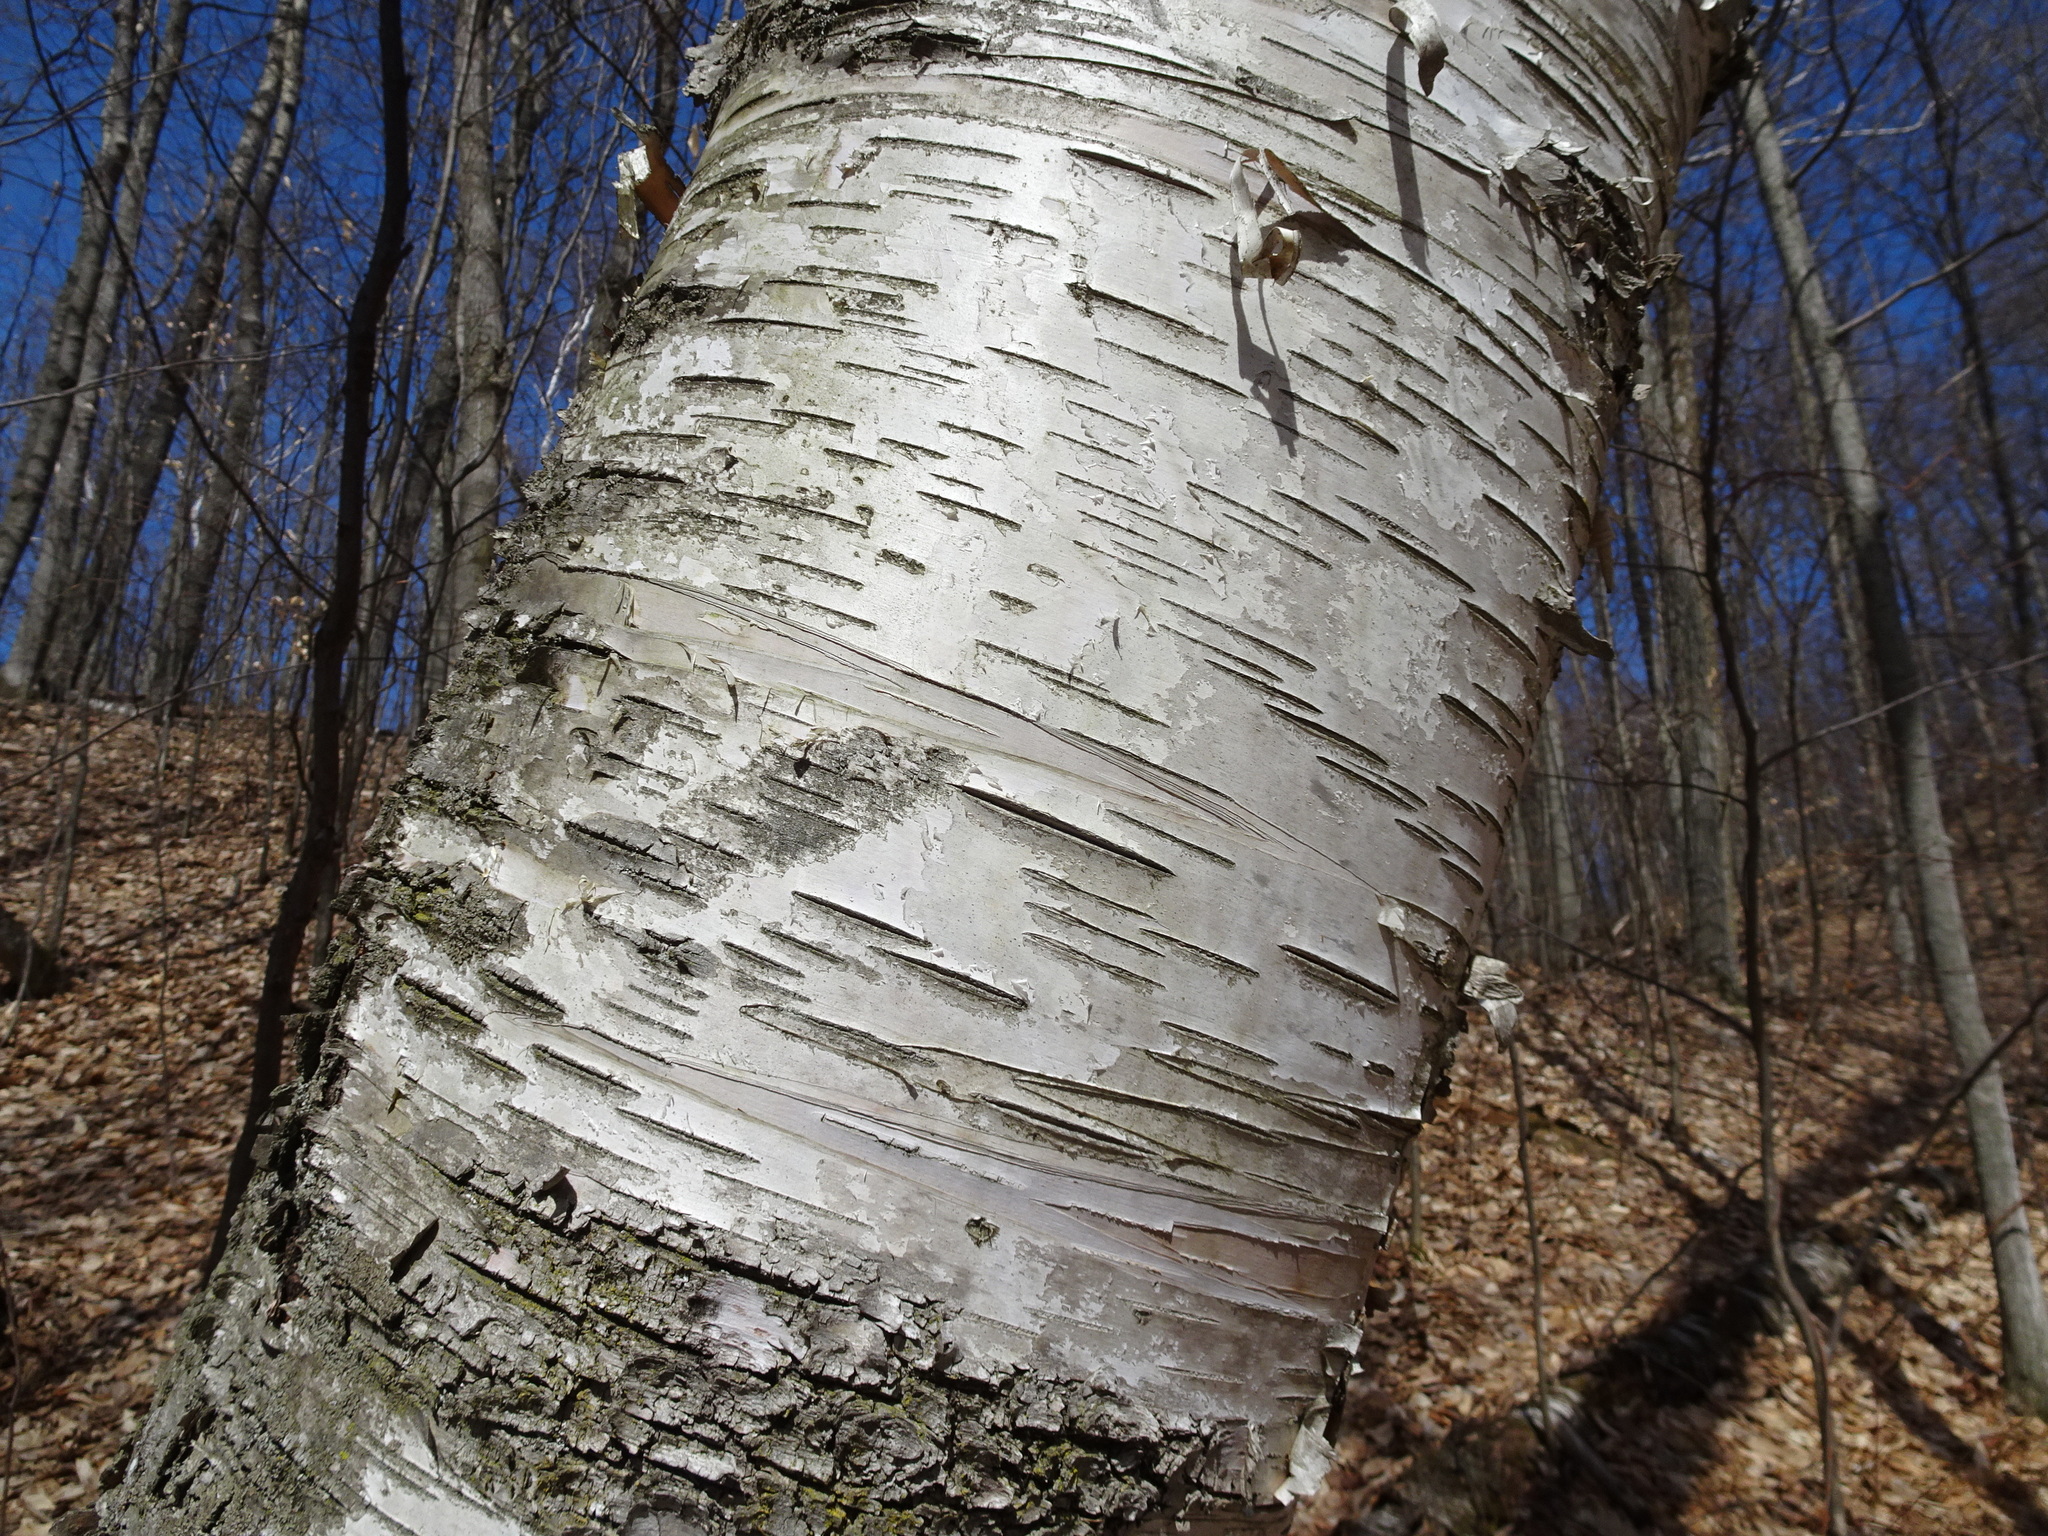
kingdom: Plantae
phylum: Tracheophyta
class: Magnoliopsida
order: Fagales
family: Betulaceae
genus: Betula
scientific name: Betula papyrifera
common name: Paper birch
